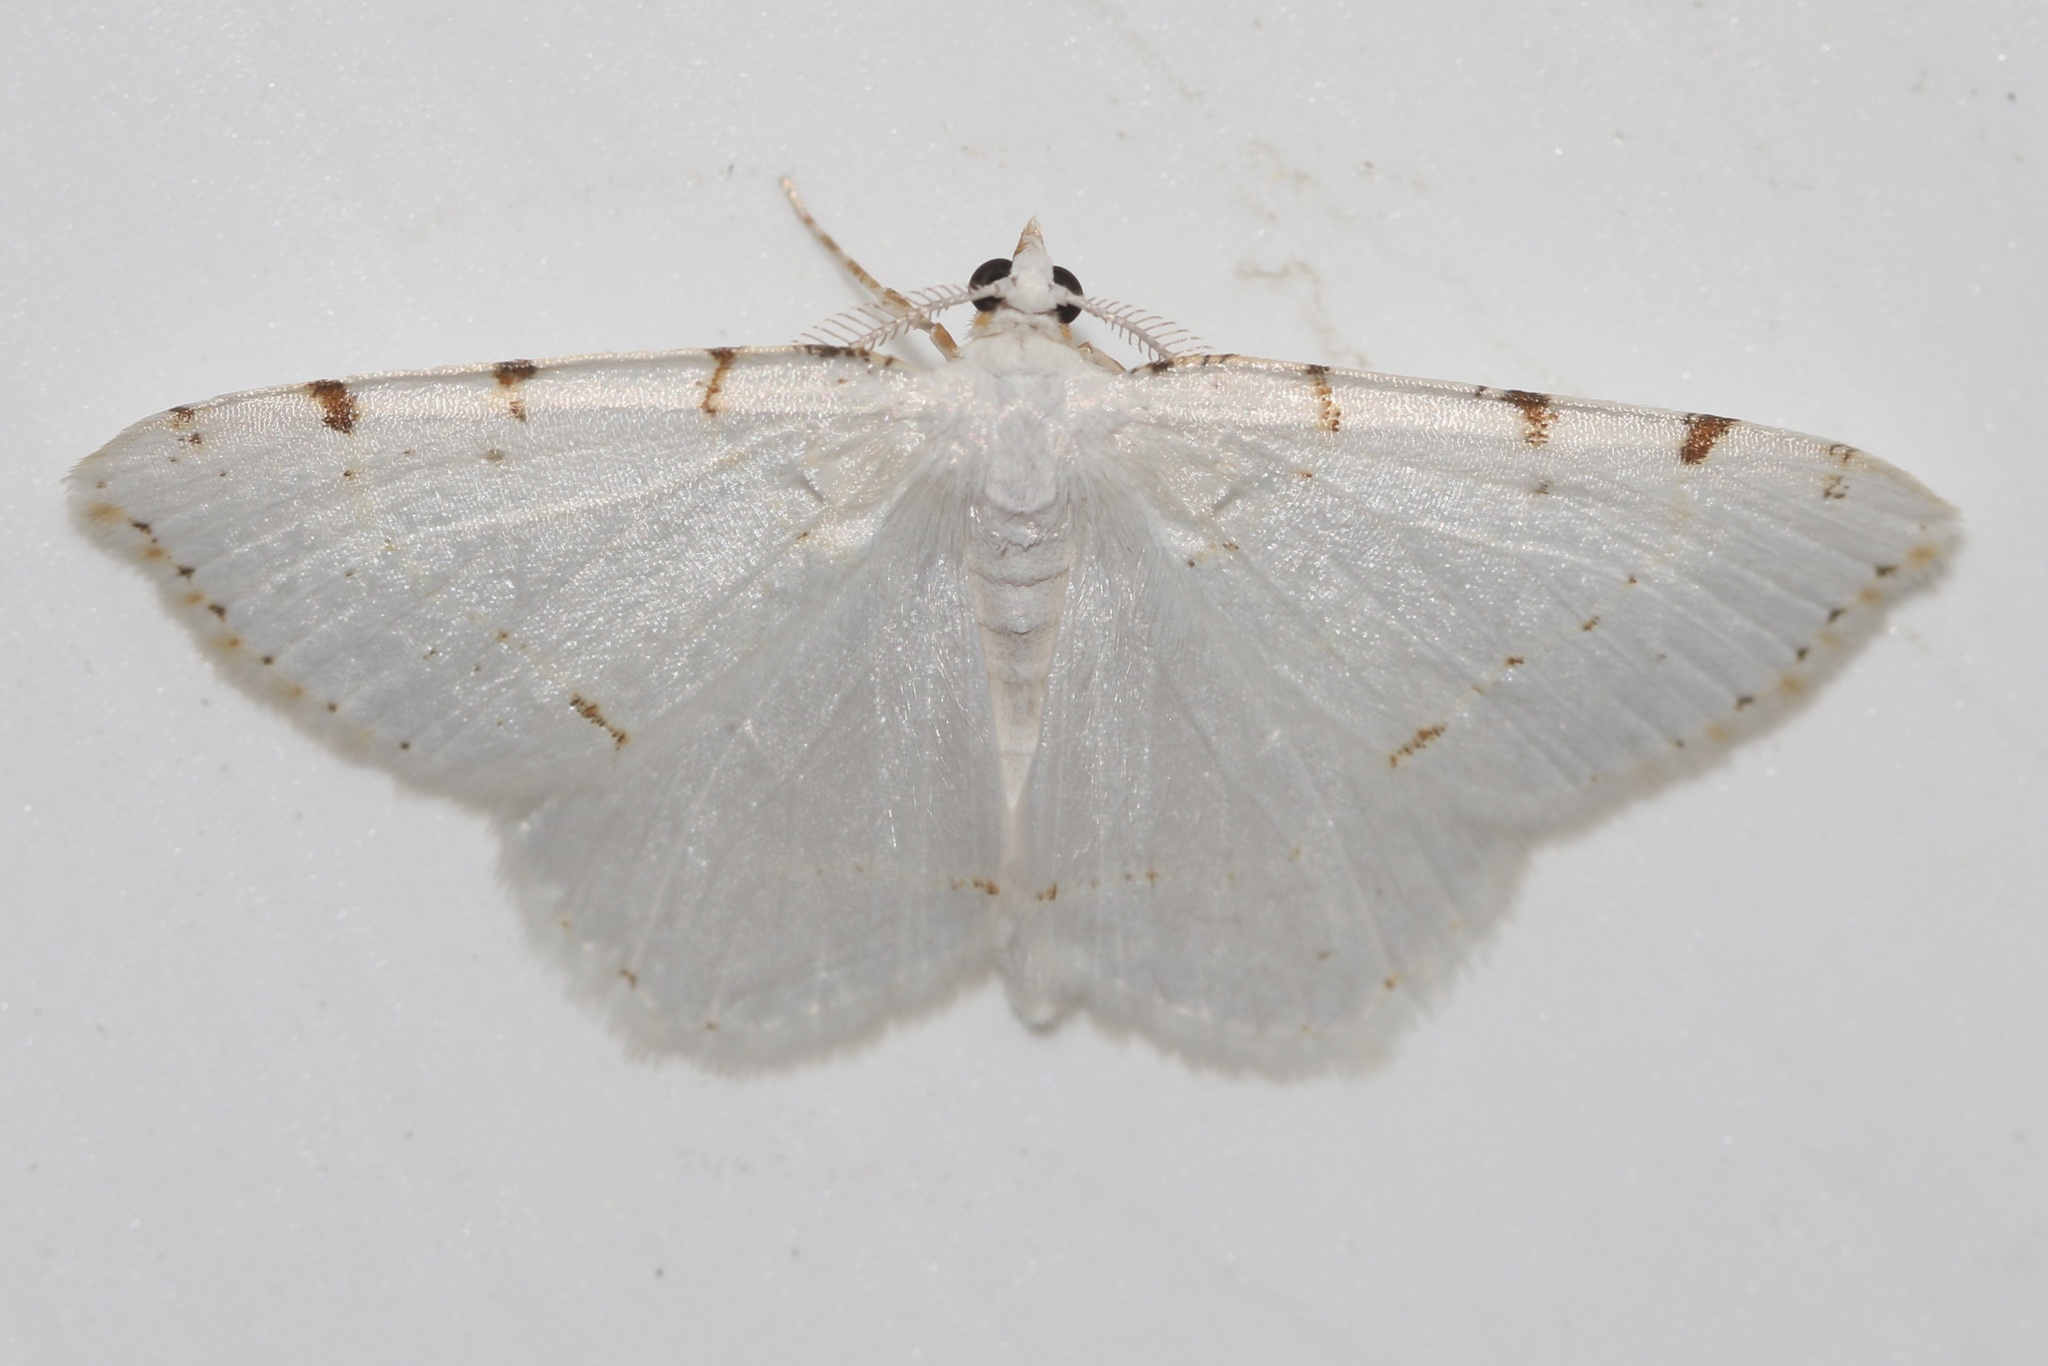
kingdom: Animalia
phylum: Arthropoda
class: Insecta
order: Lepidoptera
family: Geometridae
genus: Macaria
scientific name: Macaria pustularia
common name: Lesser maple spanworm moth
